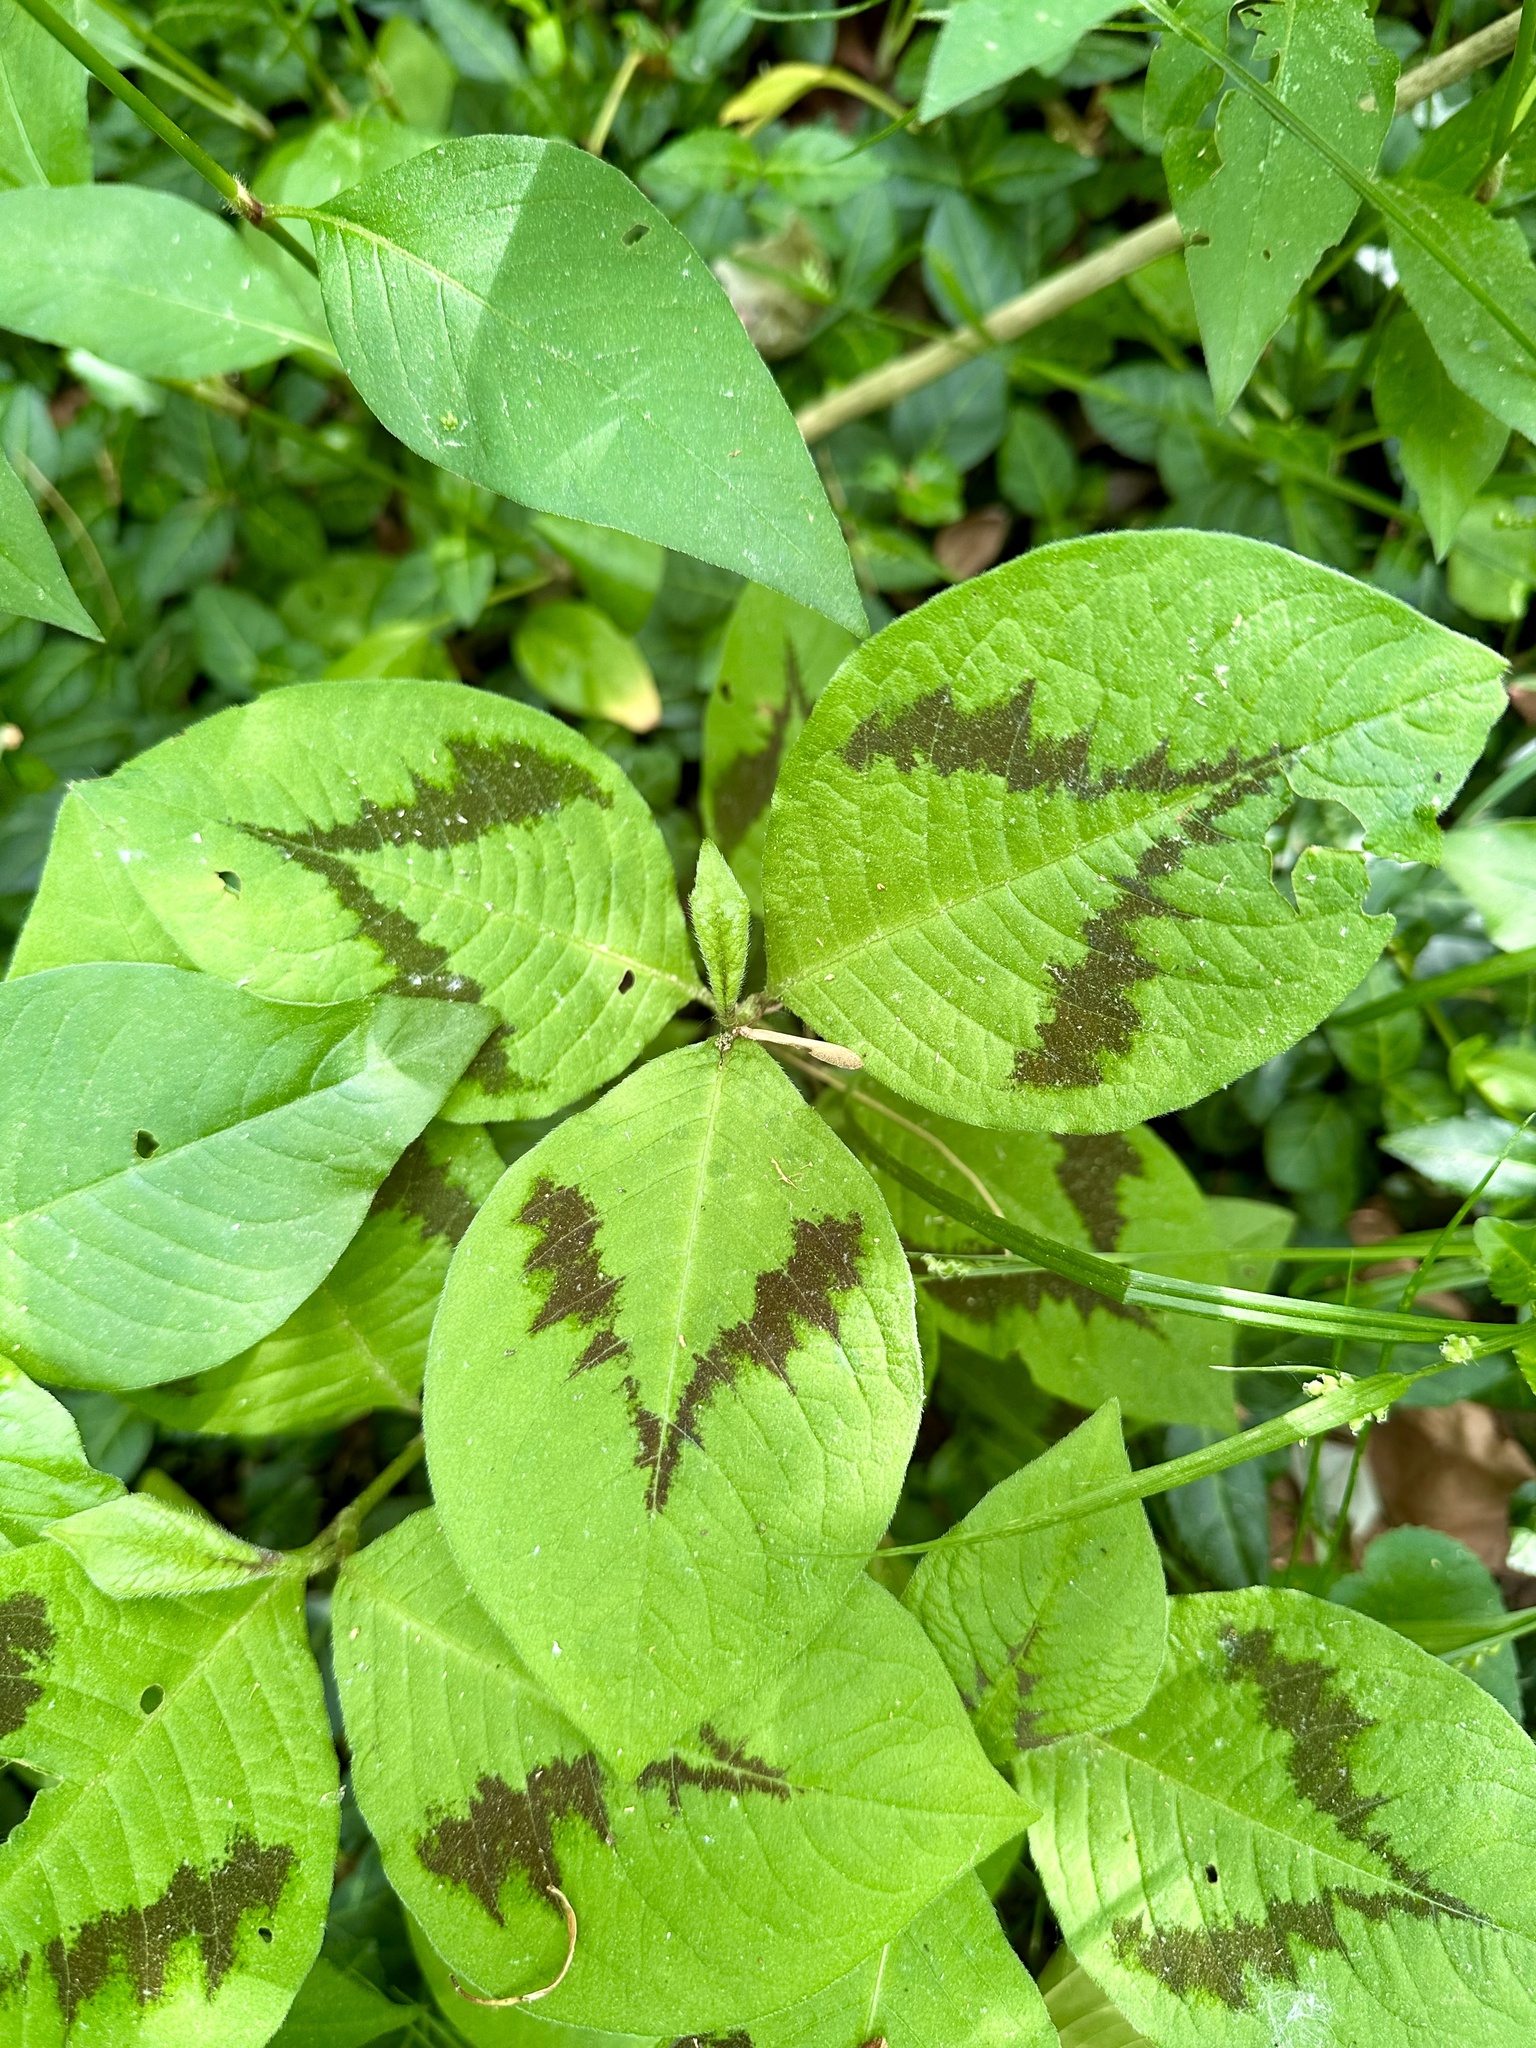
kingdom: Plantae
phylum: Tracheophyta
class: Magnoliopsida
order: Caryophyllales
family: Polygonaceae
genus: Persicaria
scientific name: Persicaria filiformis
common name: Asian jumpseed
